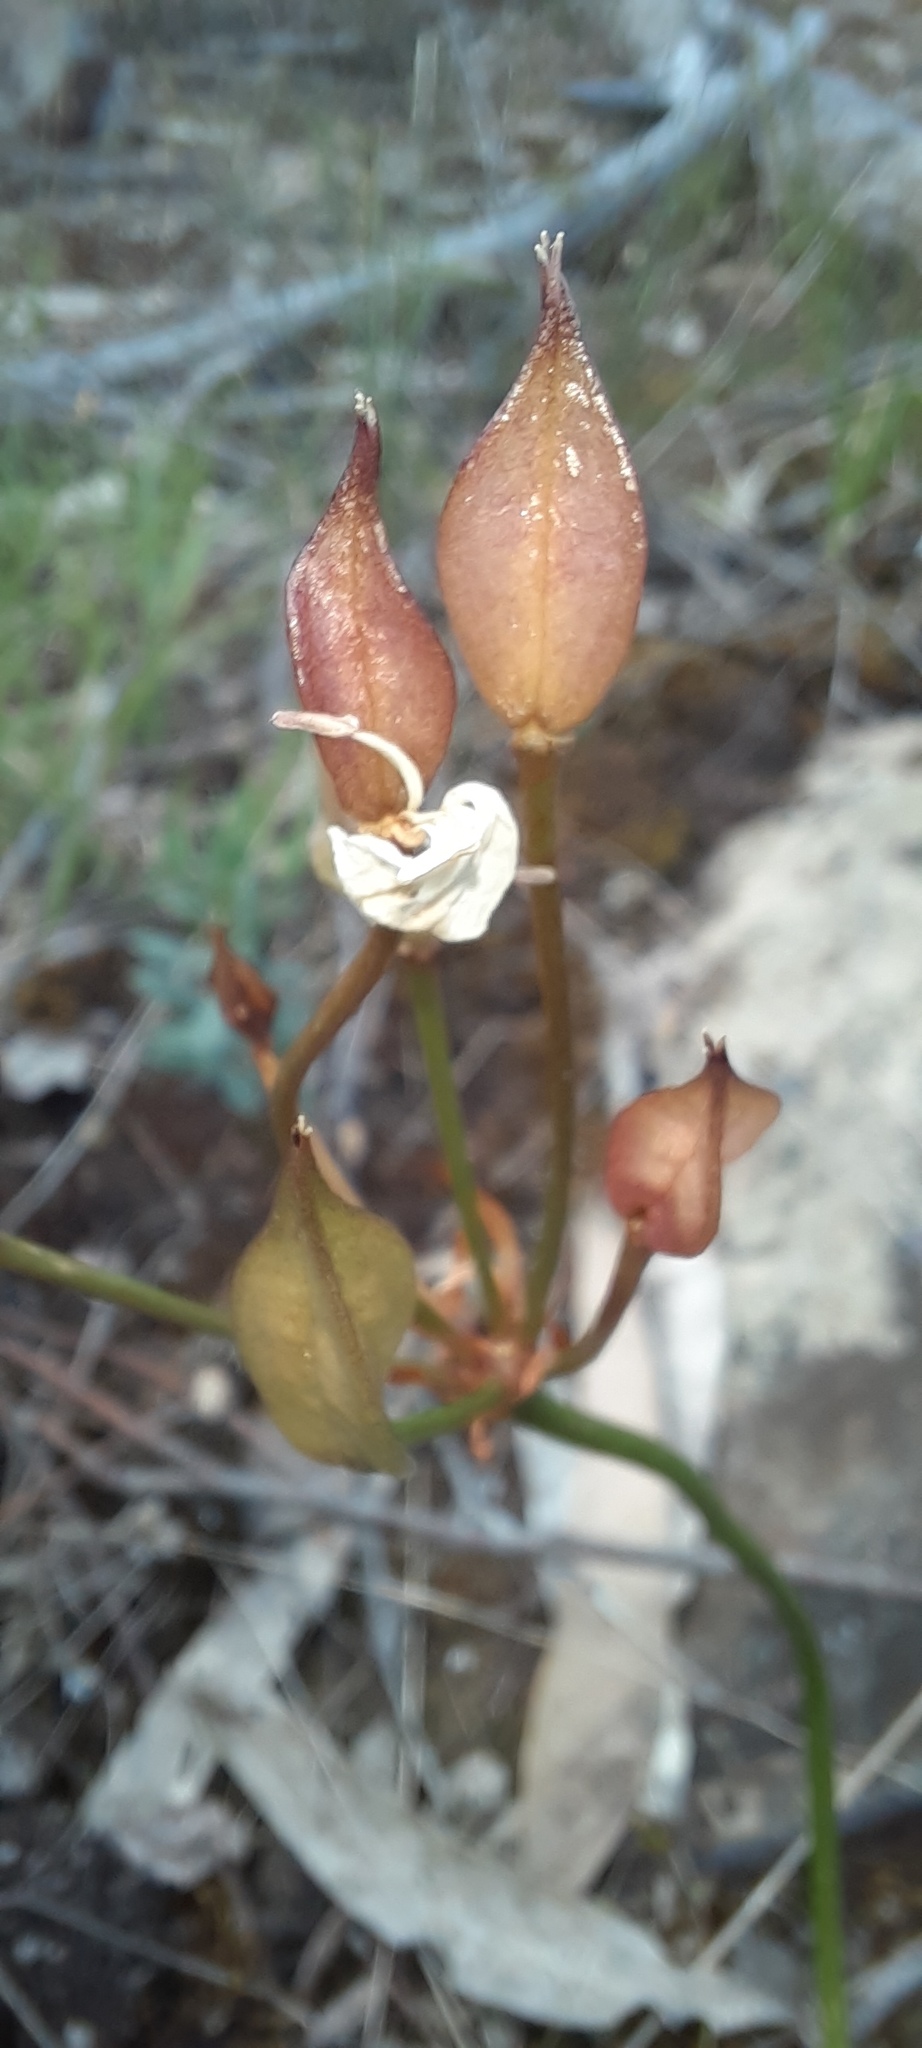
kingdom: Plantae
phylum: Tracheophyta
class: Liliopsida
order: Liliales
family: Colchicaceae
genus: Burchardia
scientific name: Burchardia umbellata
